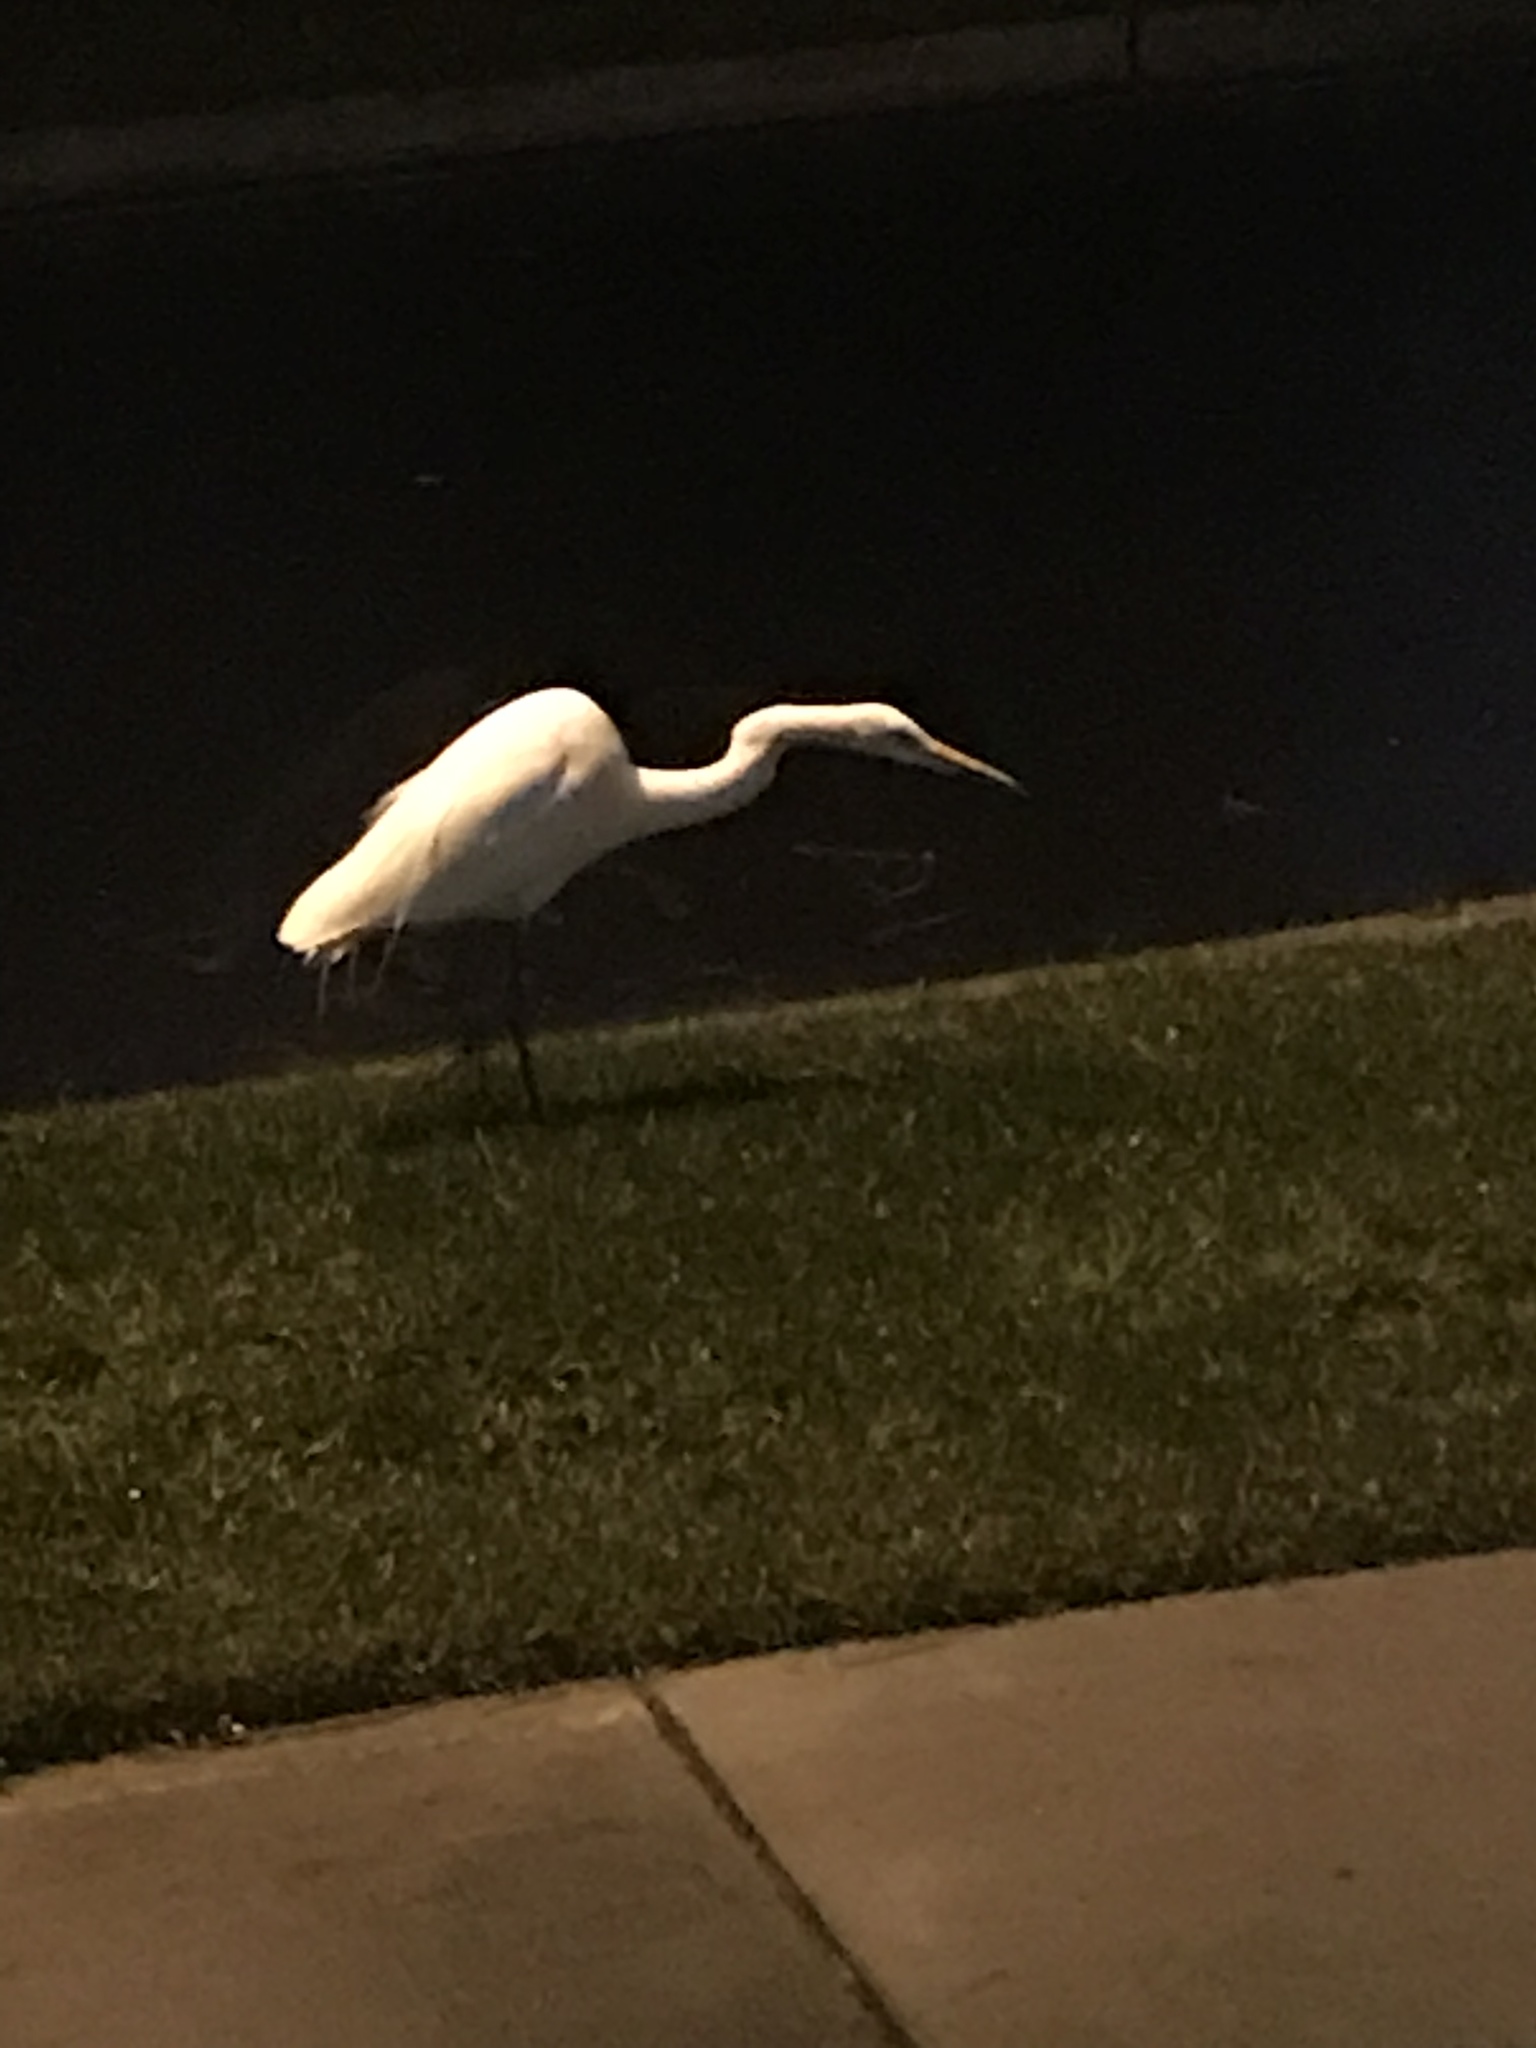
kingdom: Animalia
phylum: Chordata
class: Aves
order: Pelecaniformes
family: Ardeidae
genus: Ardea
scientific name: Ardea alba
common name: Great egret
